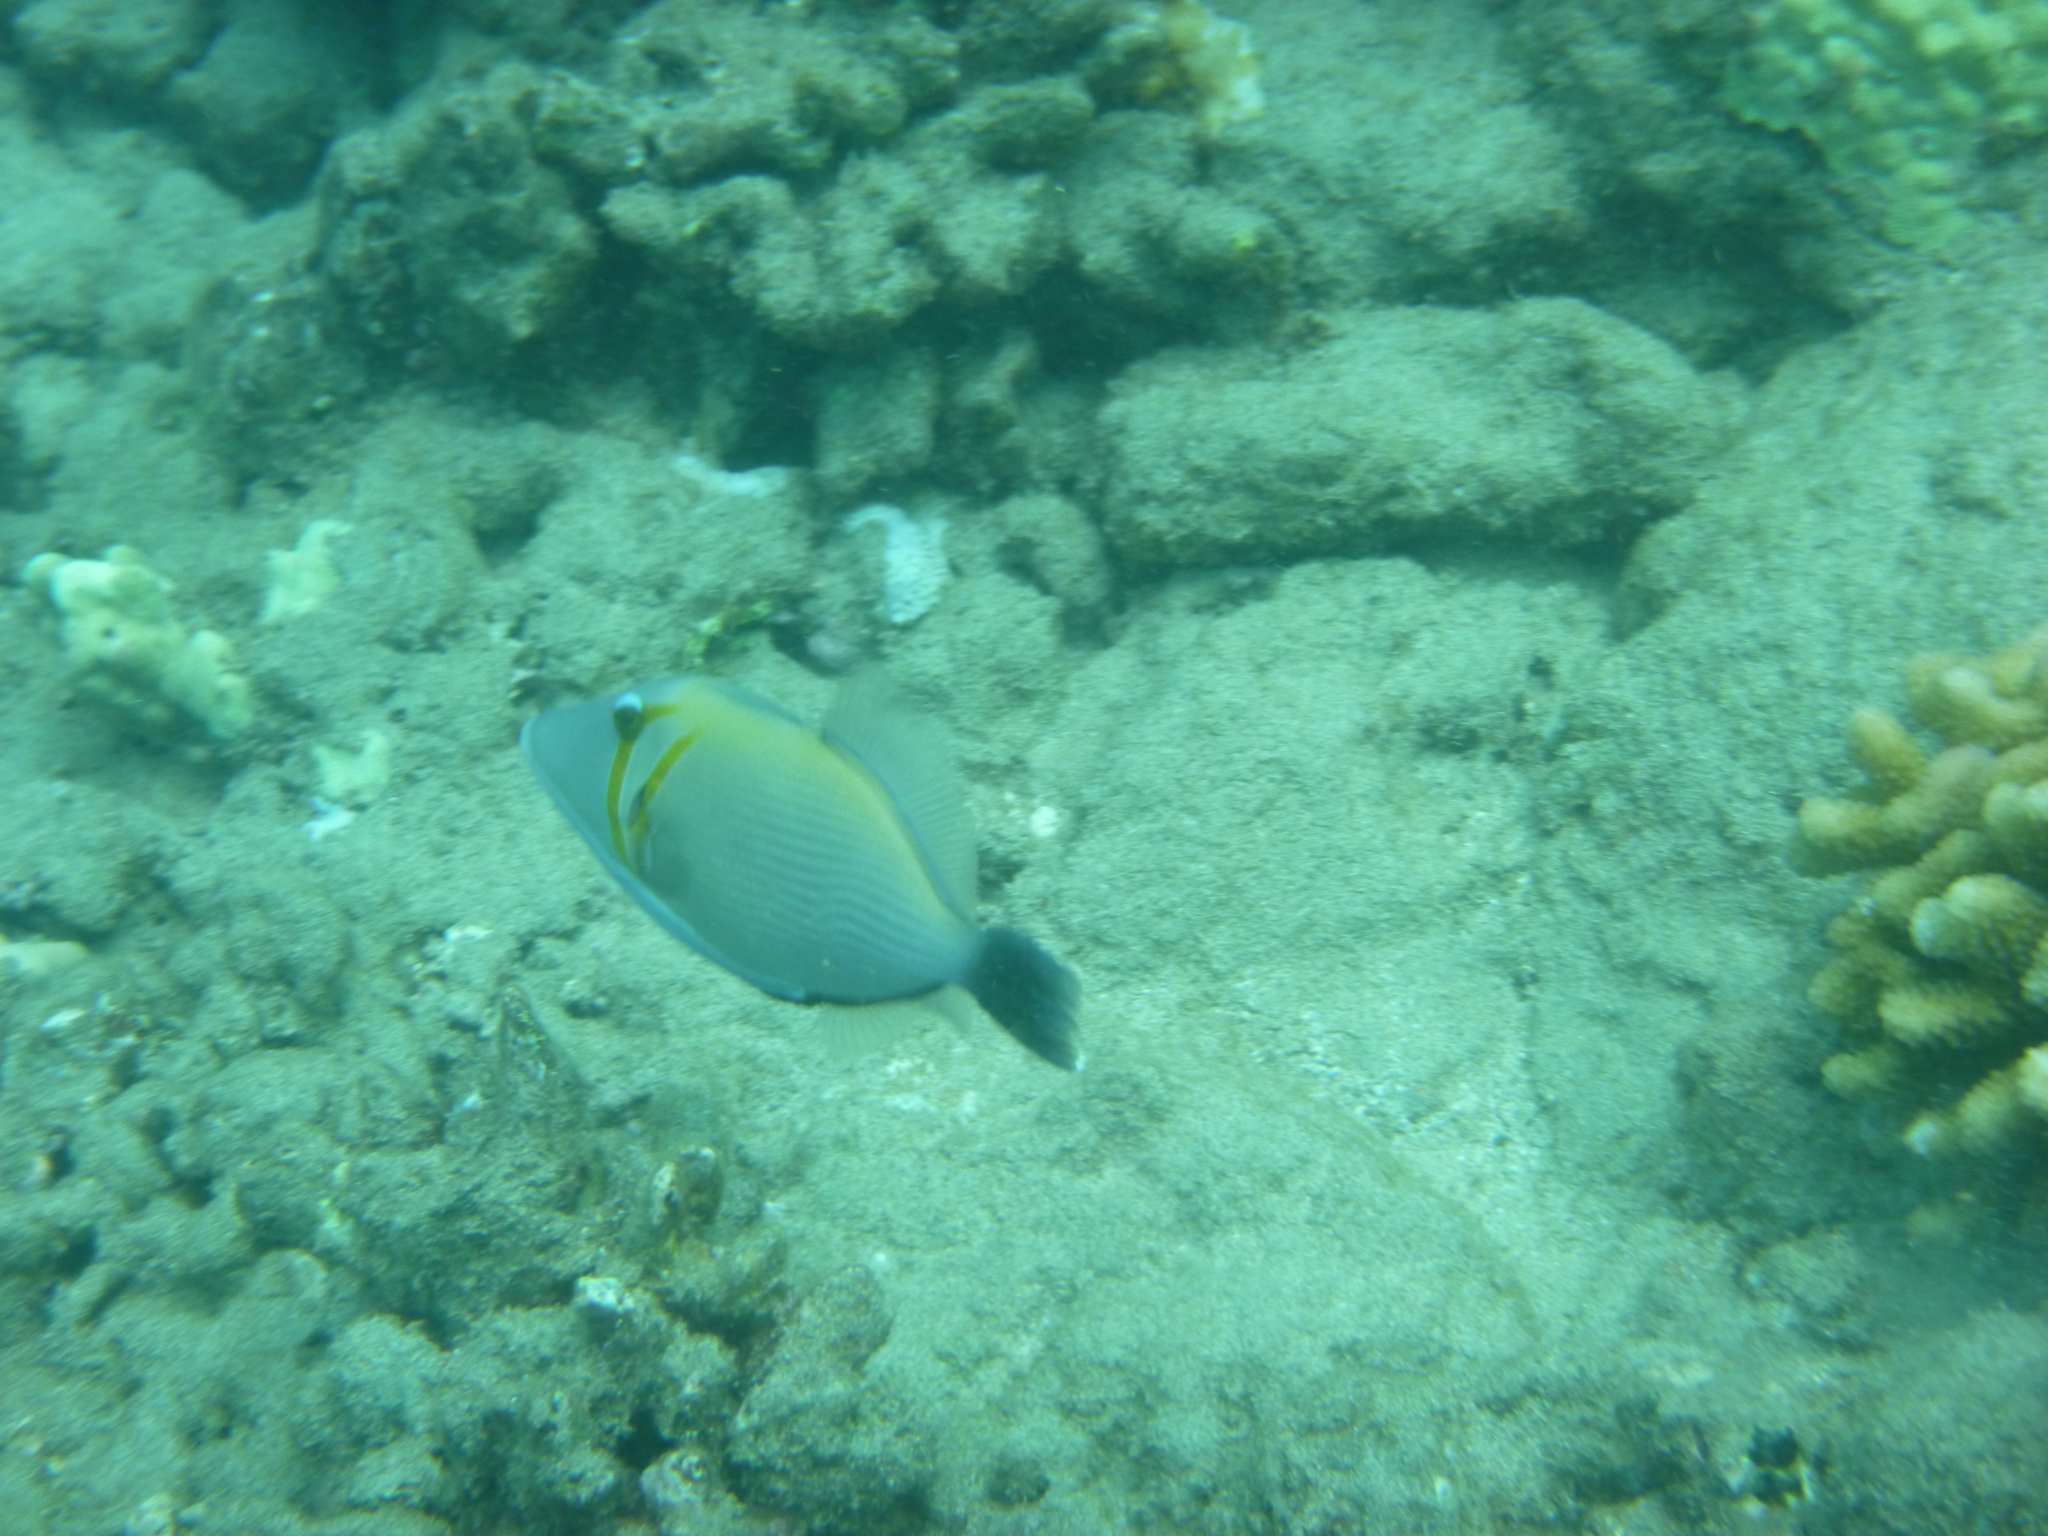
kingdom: Animalia
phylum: Chordata
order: Tetraodontiformes
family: Balistidae
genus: Sufflamen
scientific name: Sufflamen bursa
